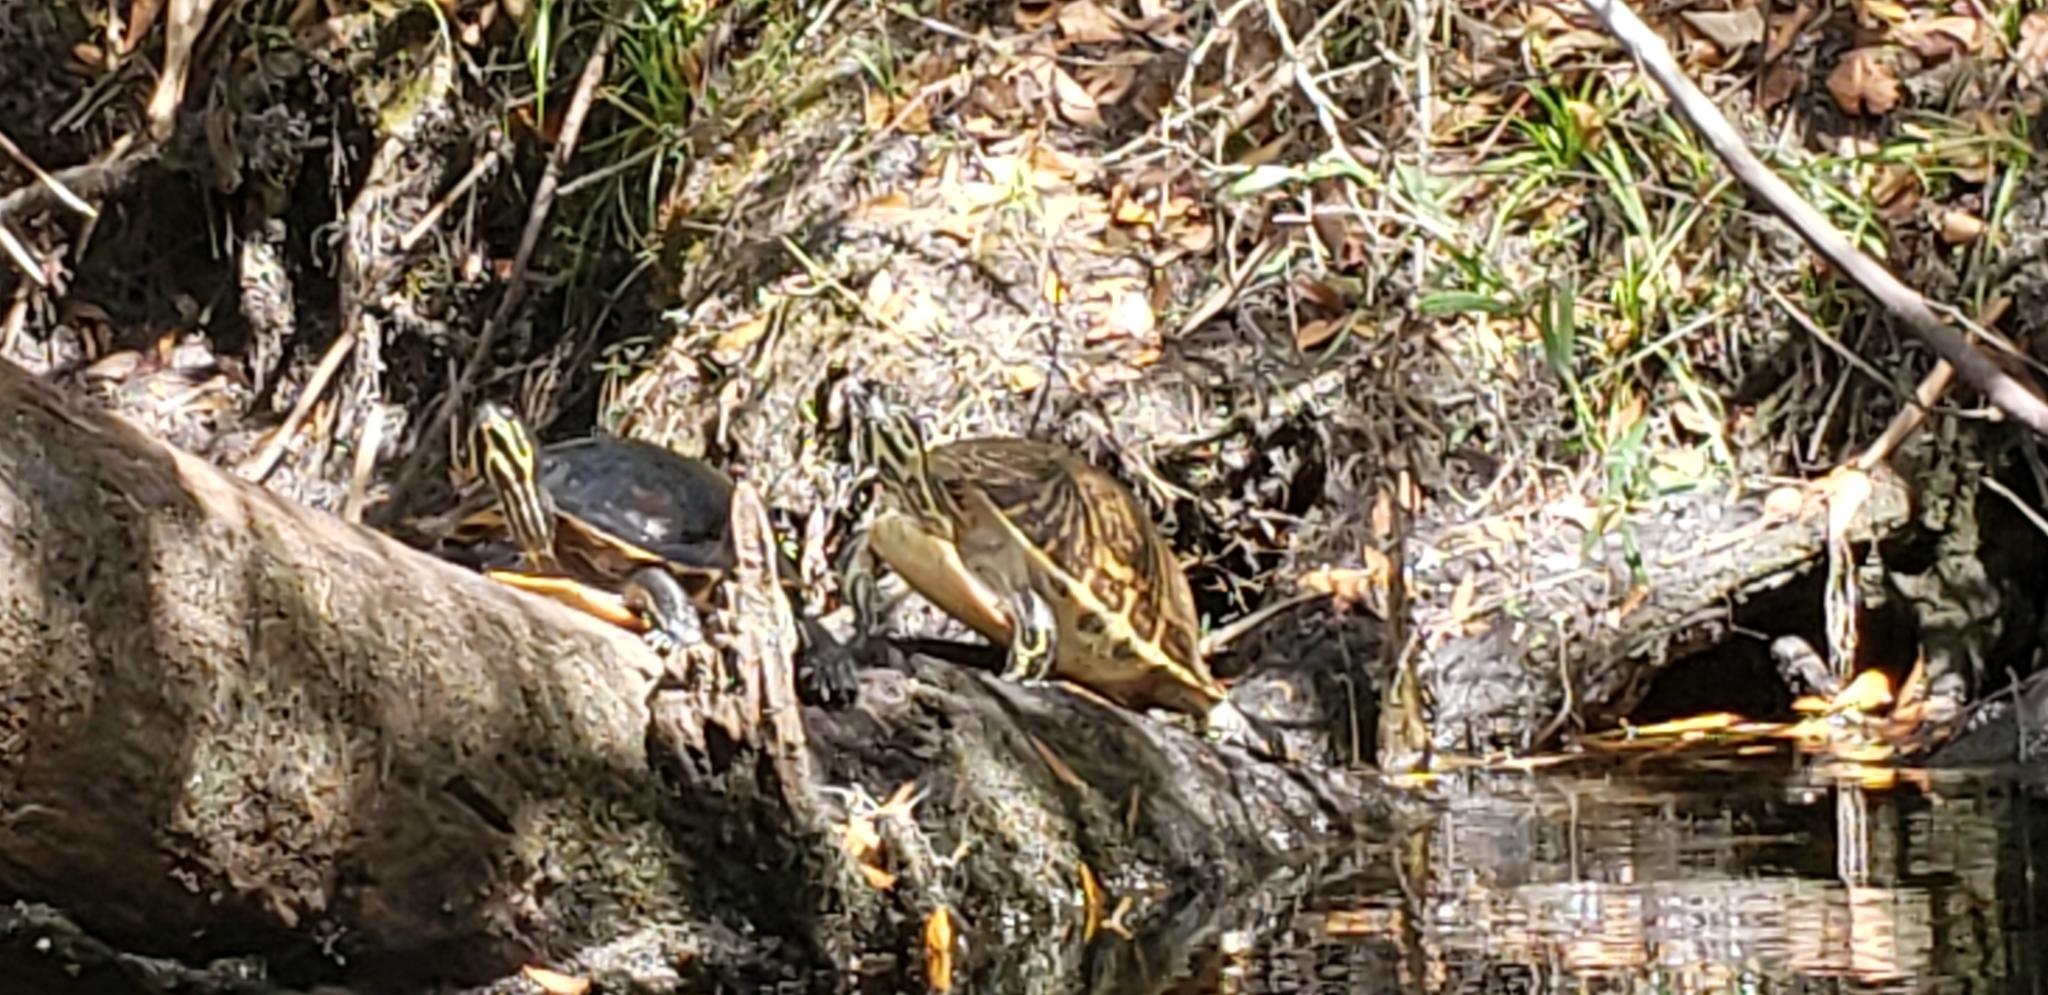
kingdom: Animalia
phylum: Chordata
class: Testudines
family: Emydidae
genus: Pseudemys
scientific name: Pseudemys peninsularis
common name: Peninsula cooter
